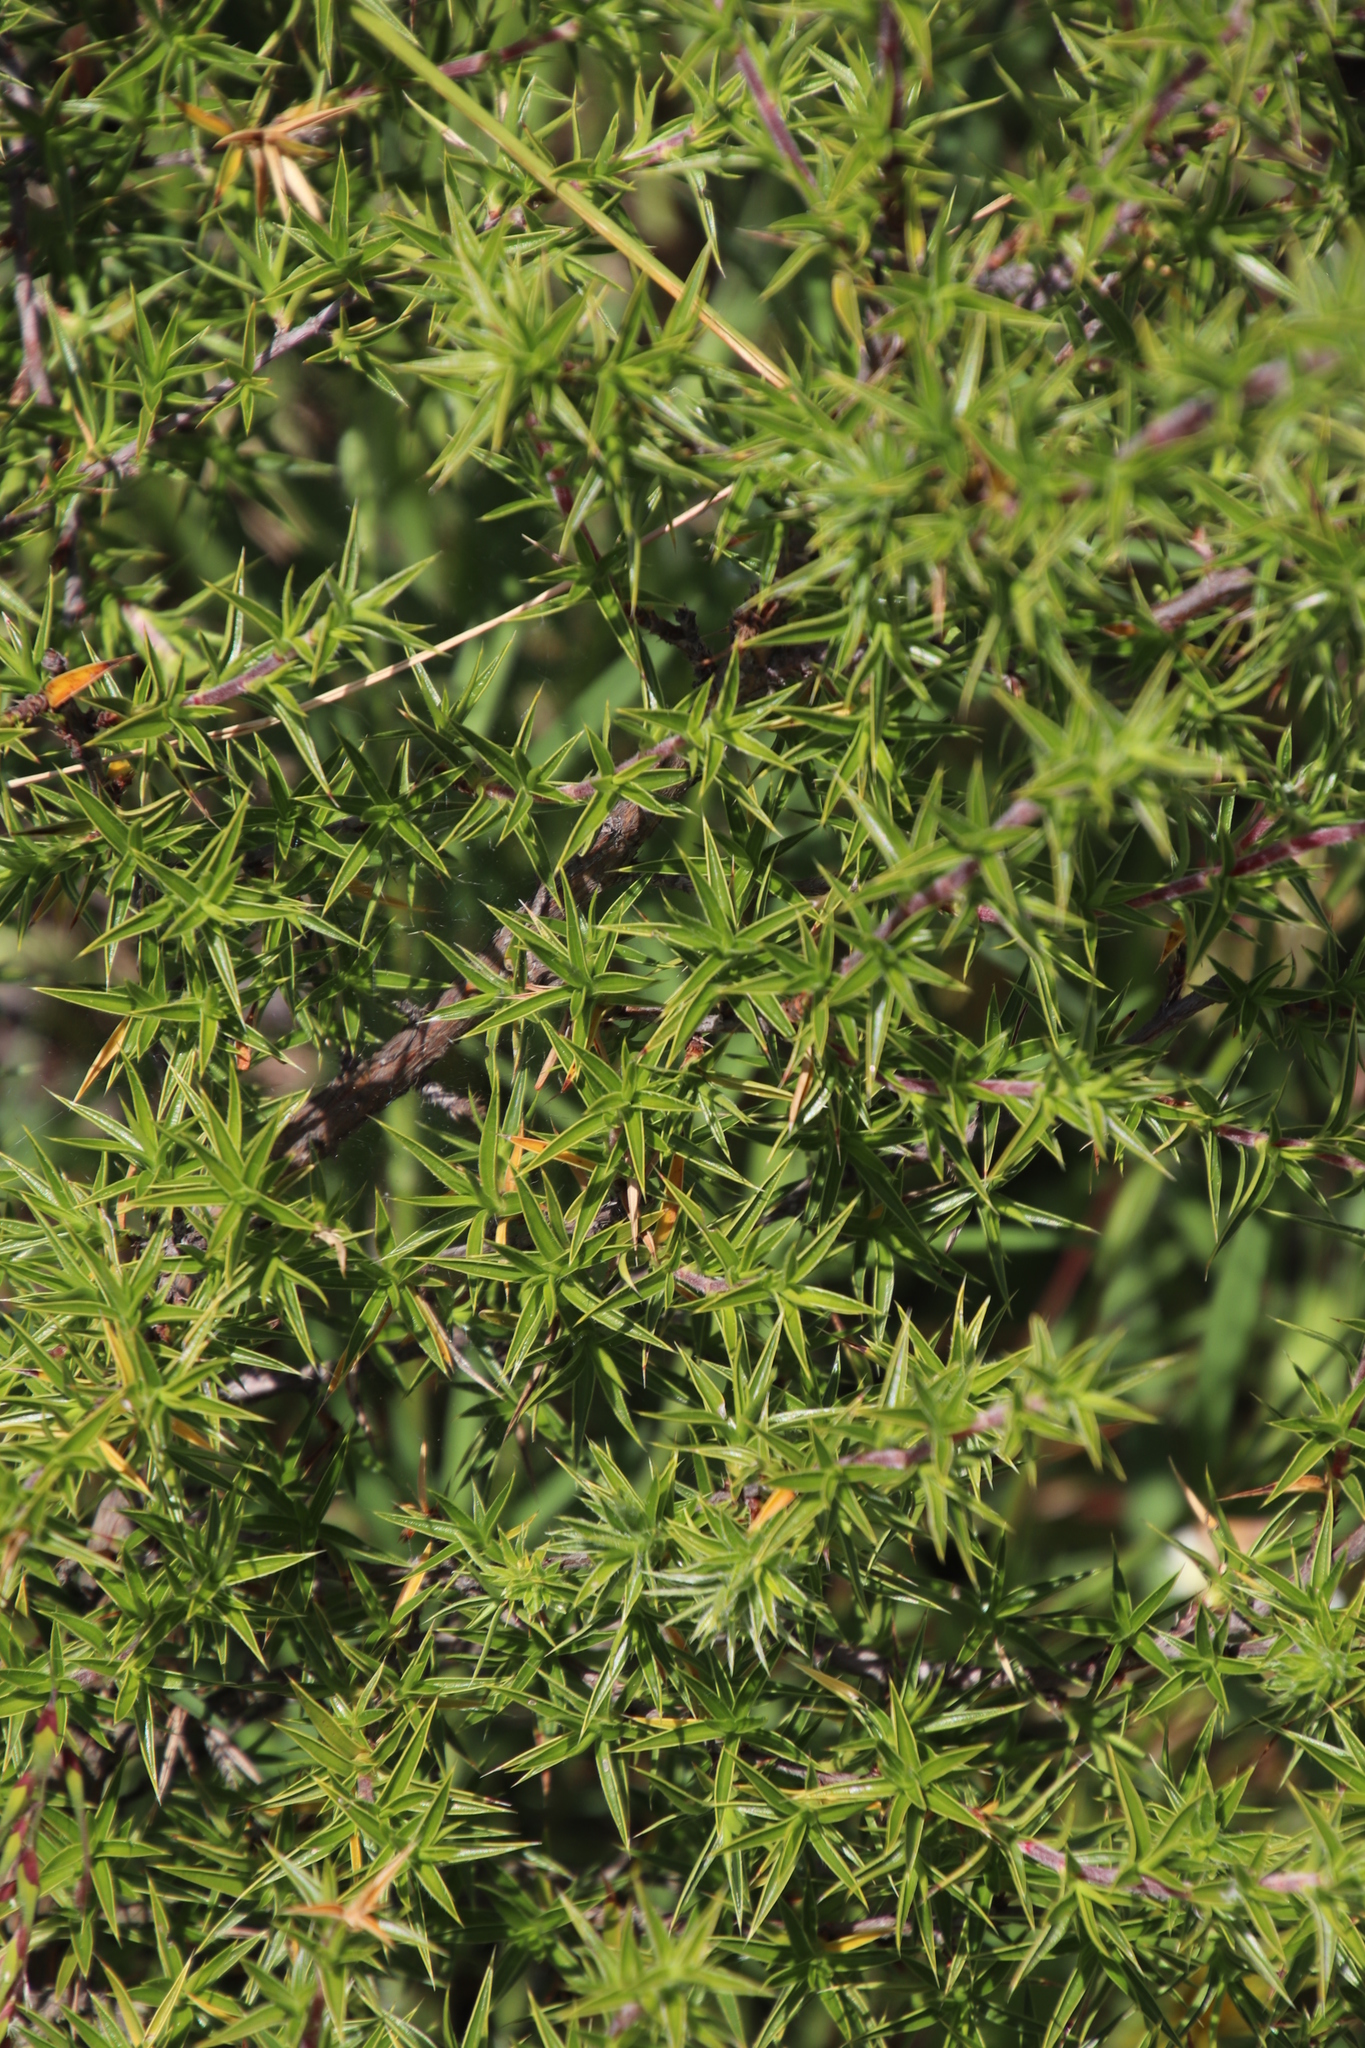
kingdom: Plantae
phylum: Tracheophyta
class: Magnoliopsida
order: Rosales
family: Rosaceae
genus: Cliffortia
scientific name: Cliffortia ruscifolia
